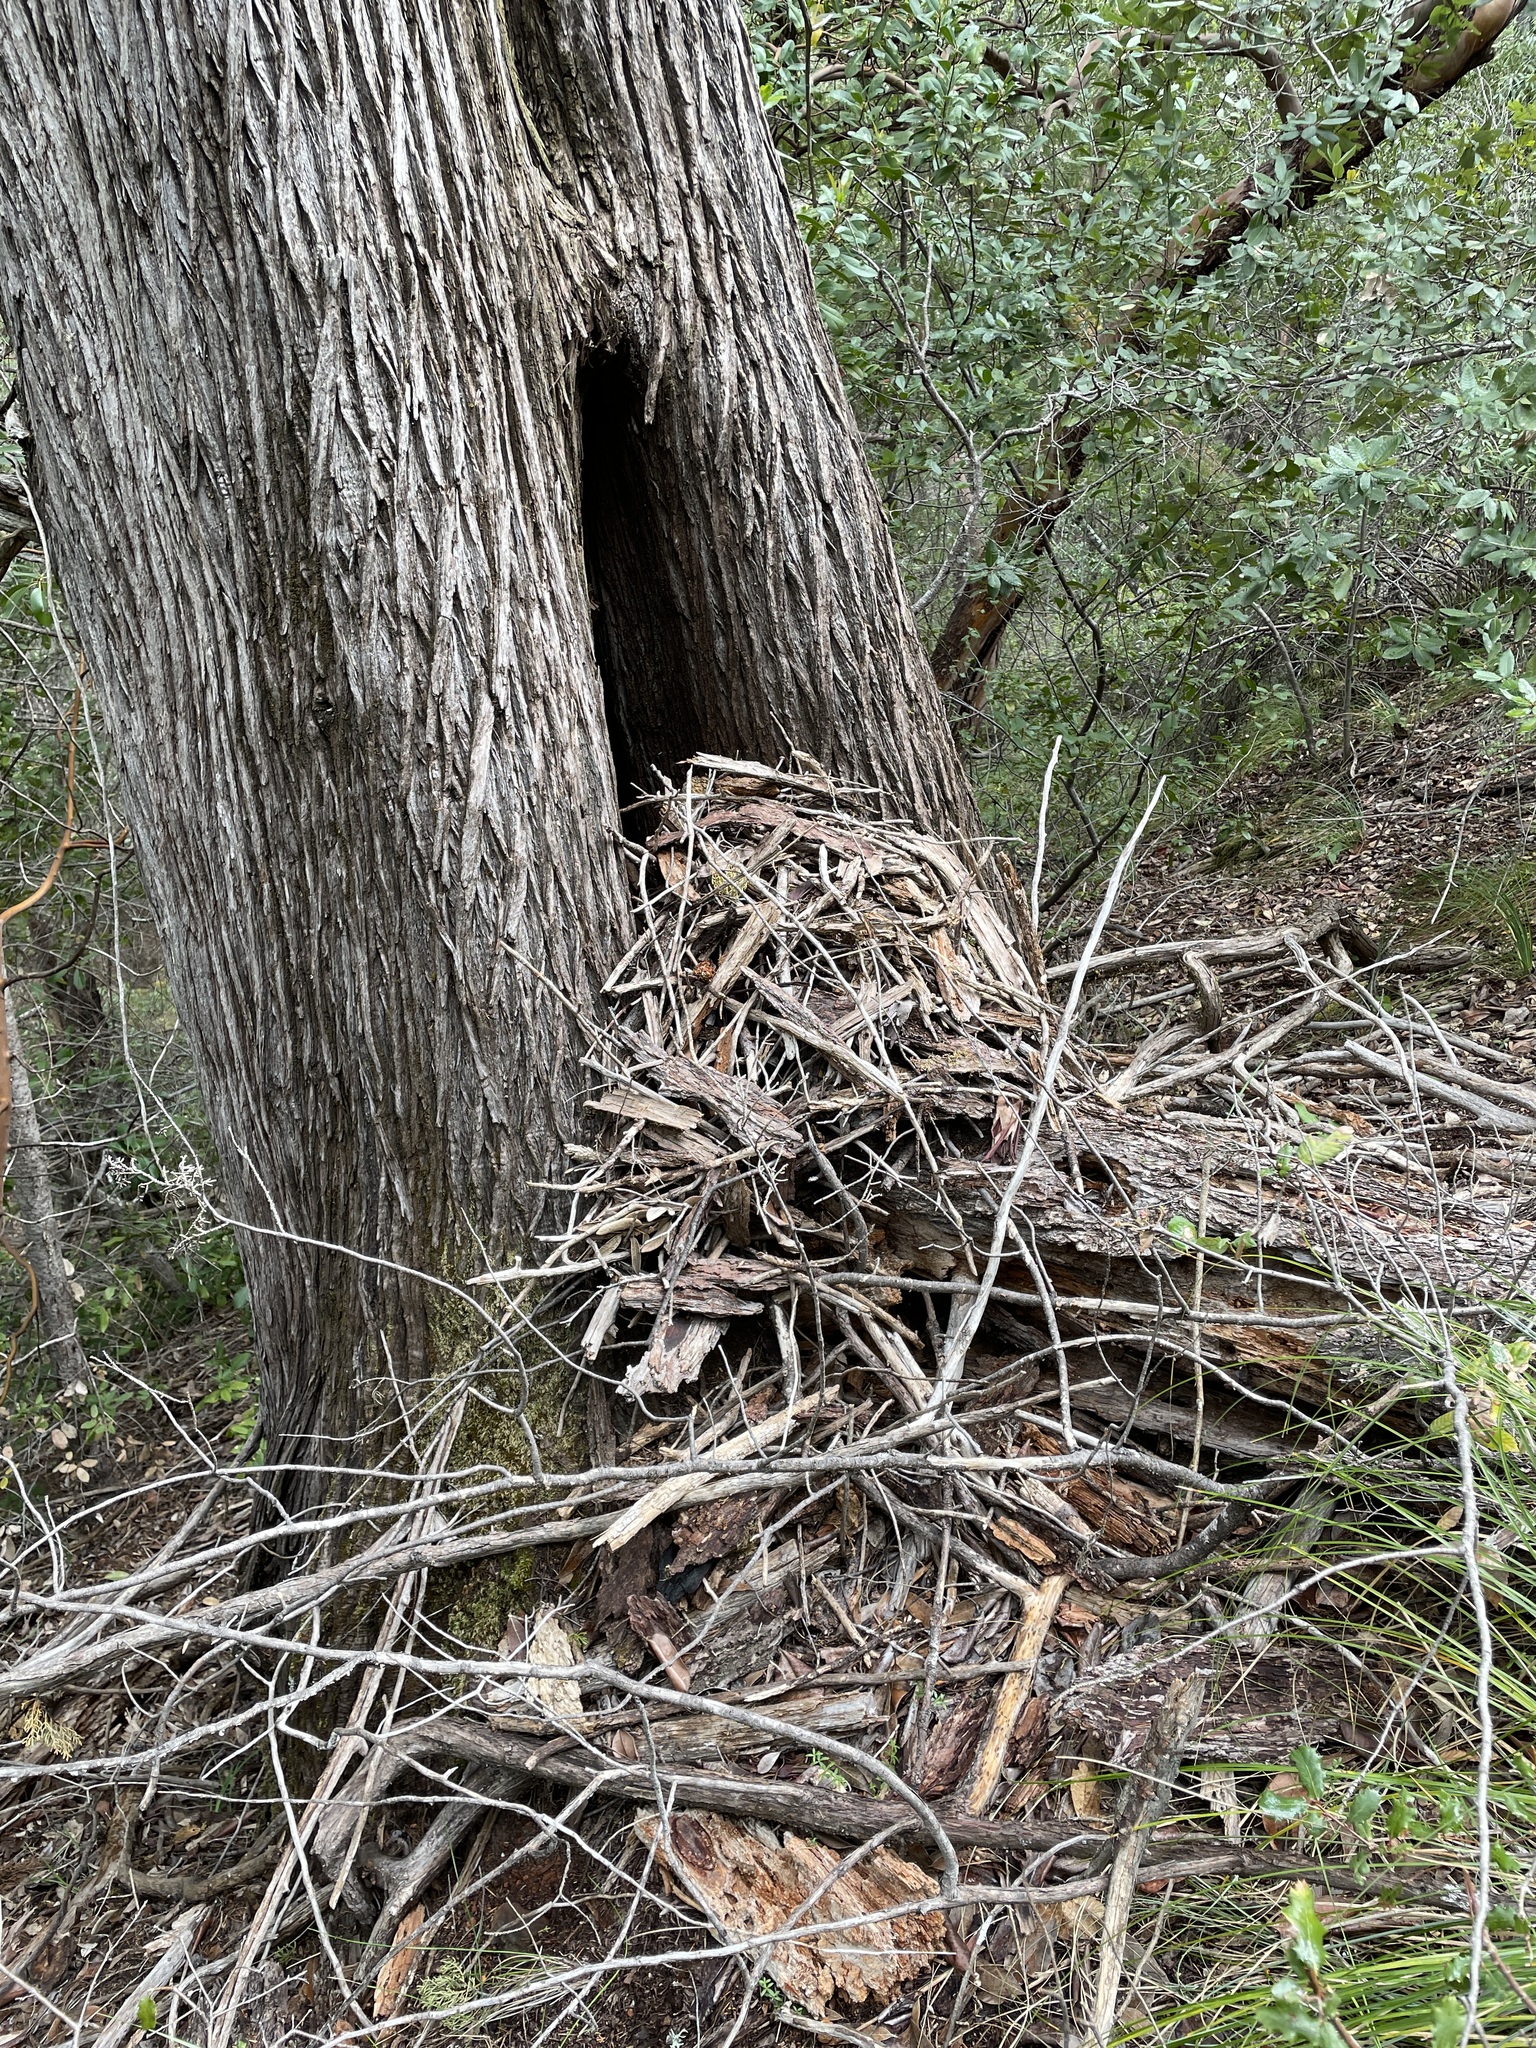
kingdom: Animalia
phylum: Chordata
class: Mammalia
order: Rodentia
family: Cricetidae
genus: Neotoma
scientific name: Neotoma fuscipes
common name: Dusky-footed woodrat
